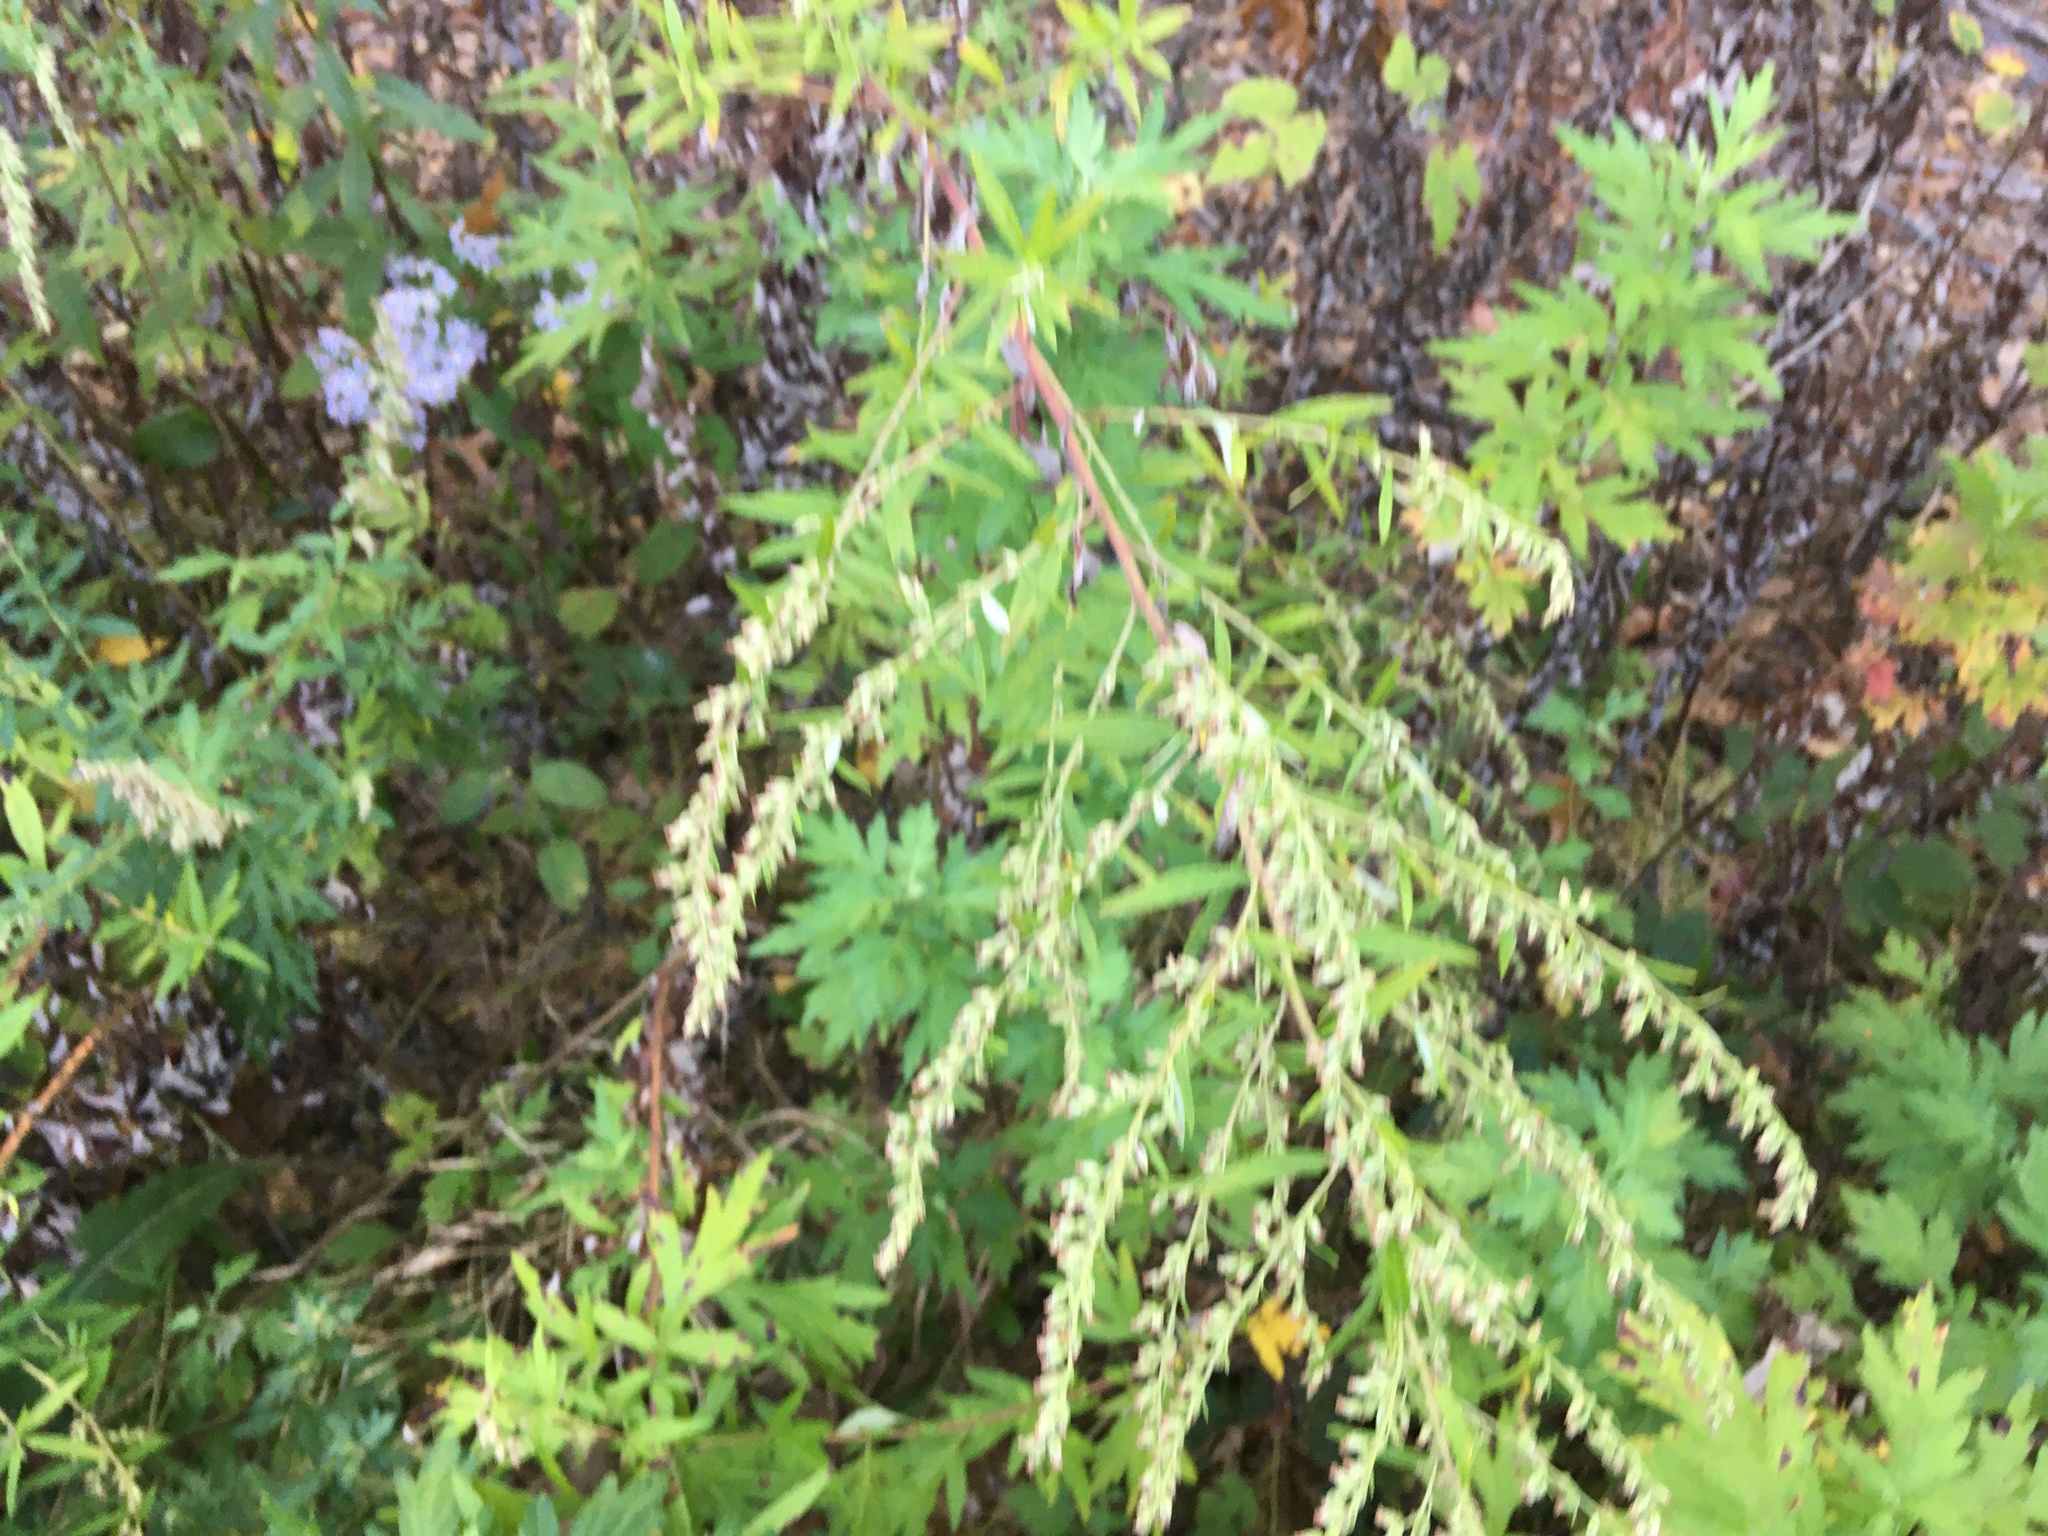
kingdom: Plantae
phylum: Tracheophyta
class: Magnoliopsida
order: Asterales
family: Asteraceae
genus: Artemisia
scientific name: Artemisia vulgaris
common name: Mugwort
